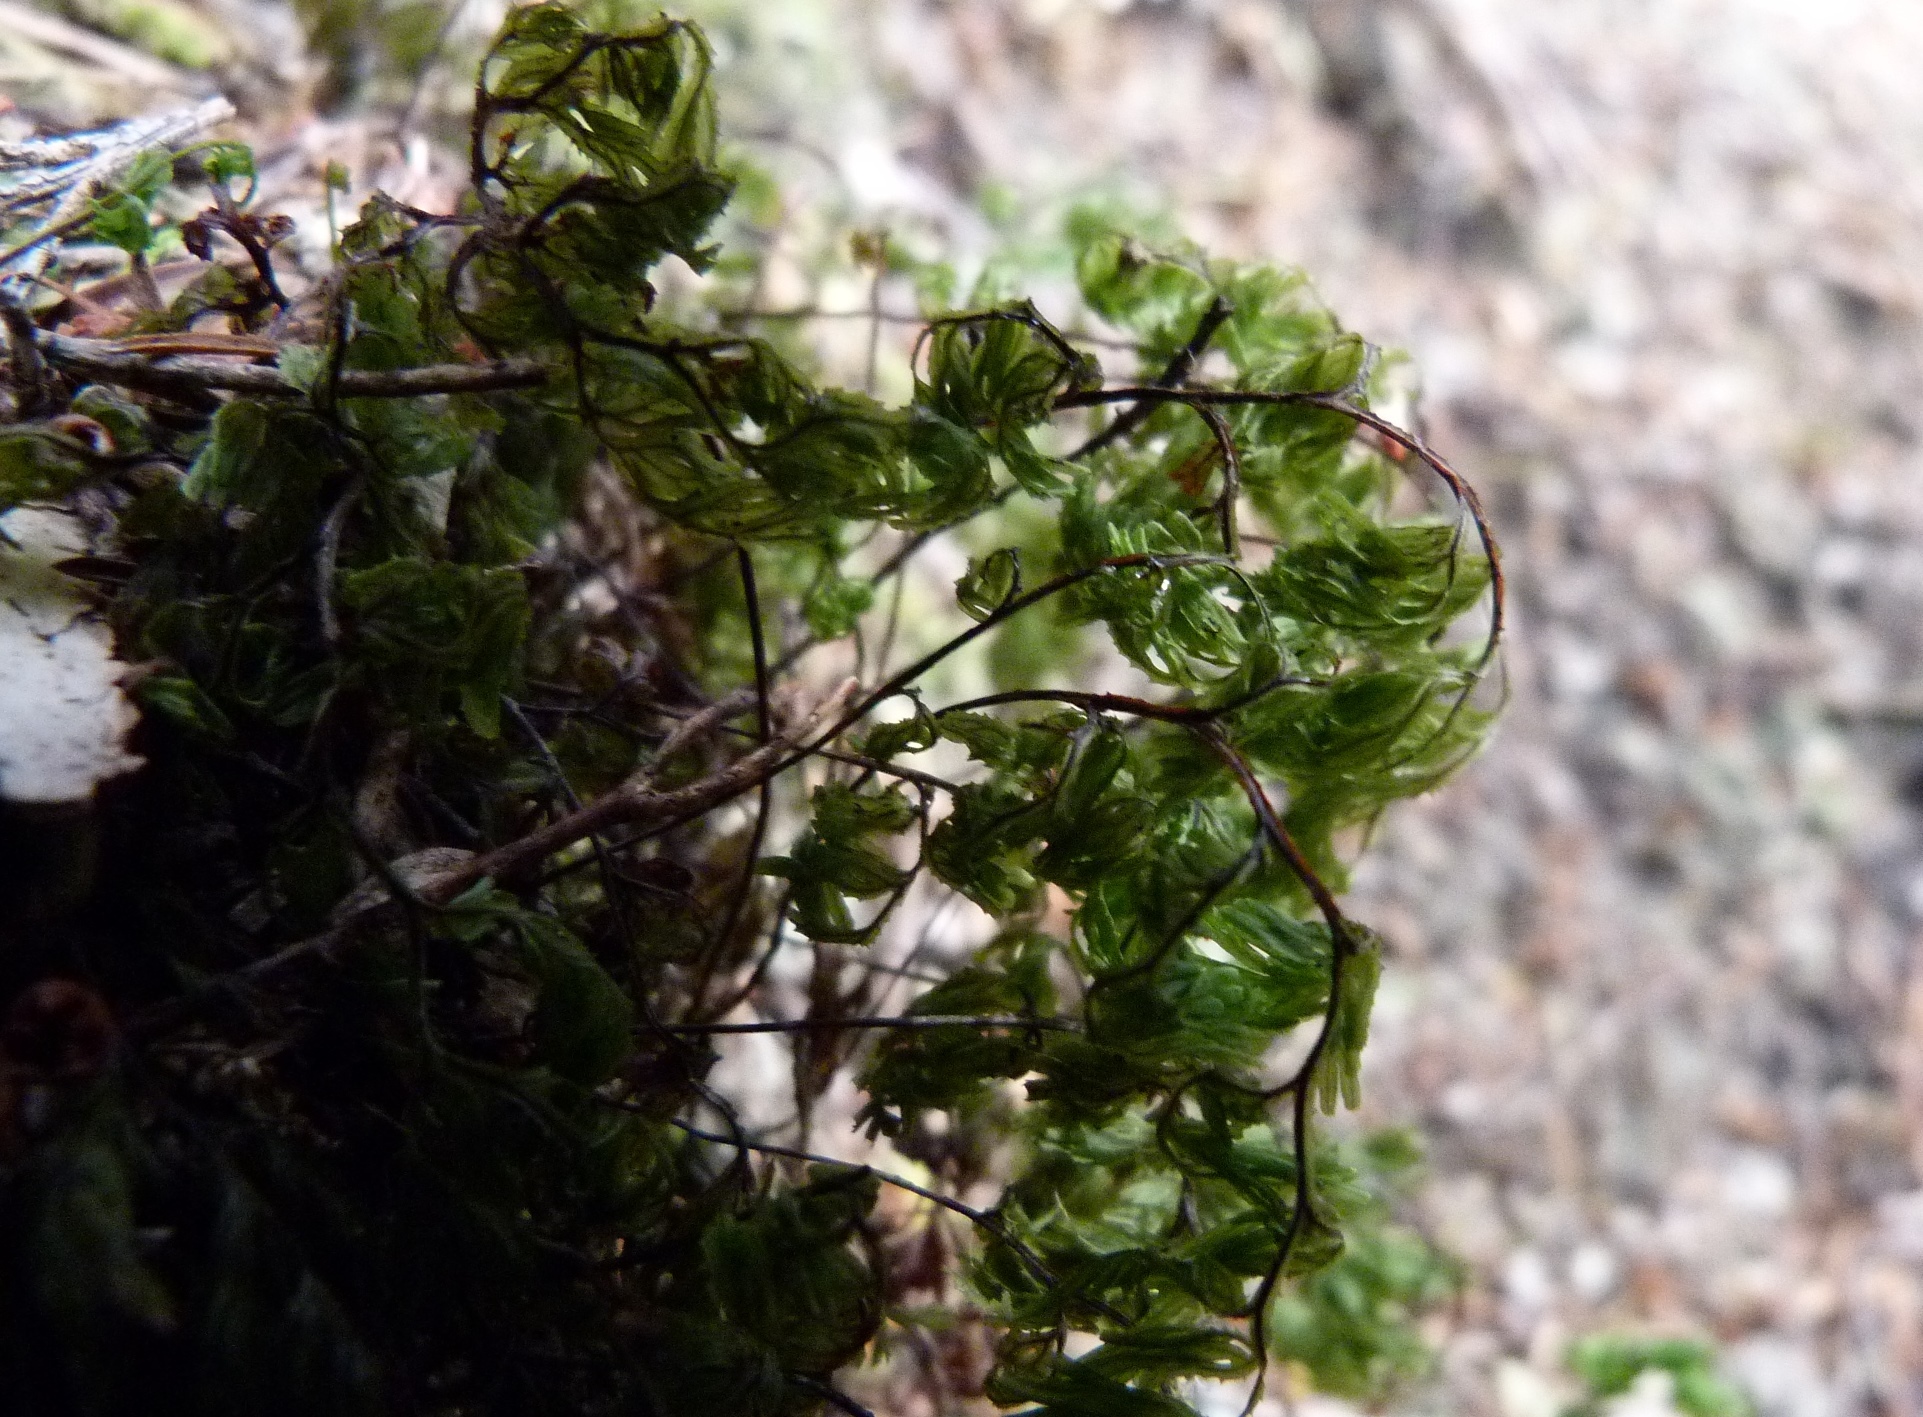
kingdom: Plantae
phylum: Tracheophyta
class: Polypodiopsida
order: Hymenophyllales
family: Hymenophyllaceae
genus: Hymenophyllum
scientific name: Hymenophyllum multifidum
